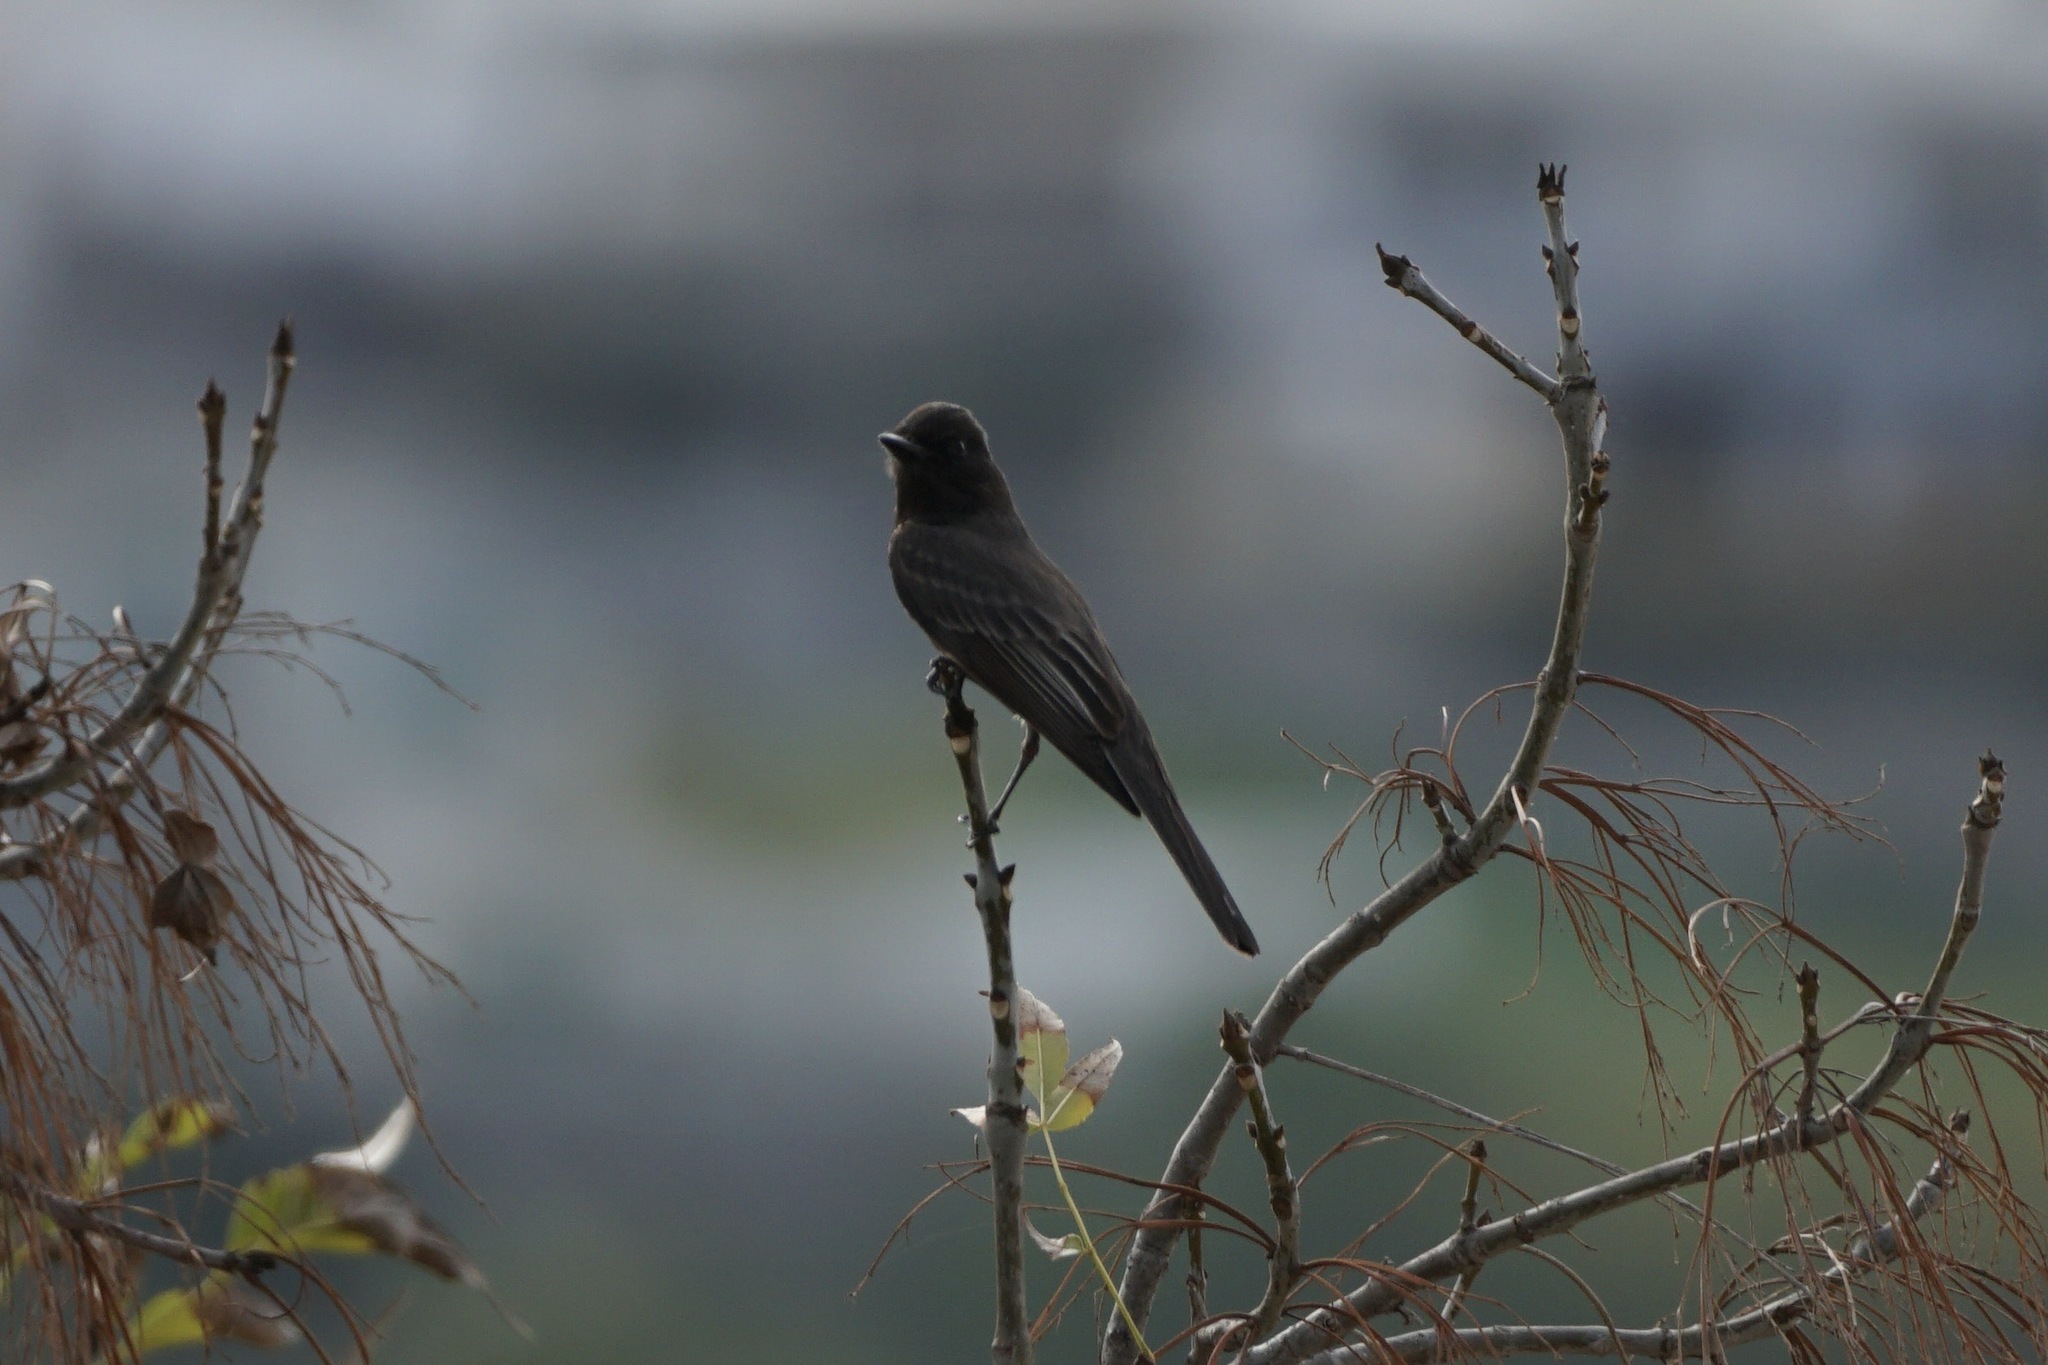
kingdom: Animalia
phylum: Chordata
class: Aves
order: Passeriformes
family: Tyrannidae
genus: Sayornis
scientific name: Sayornis nigricans
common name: Black phoebe
